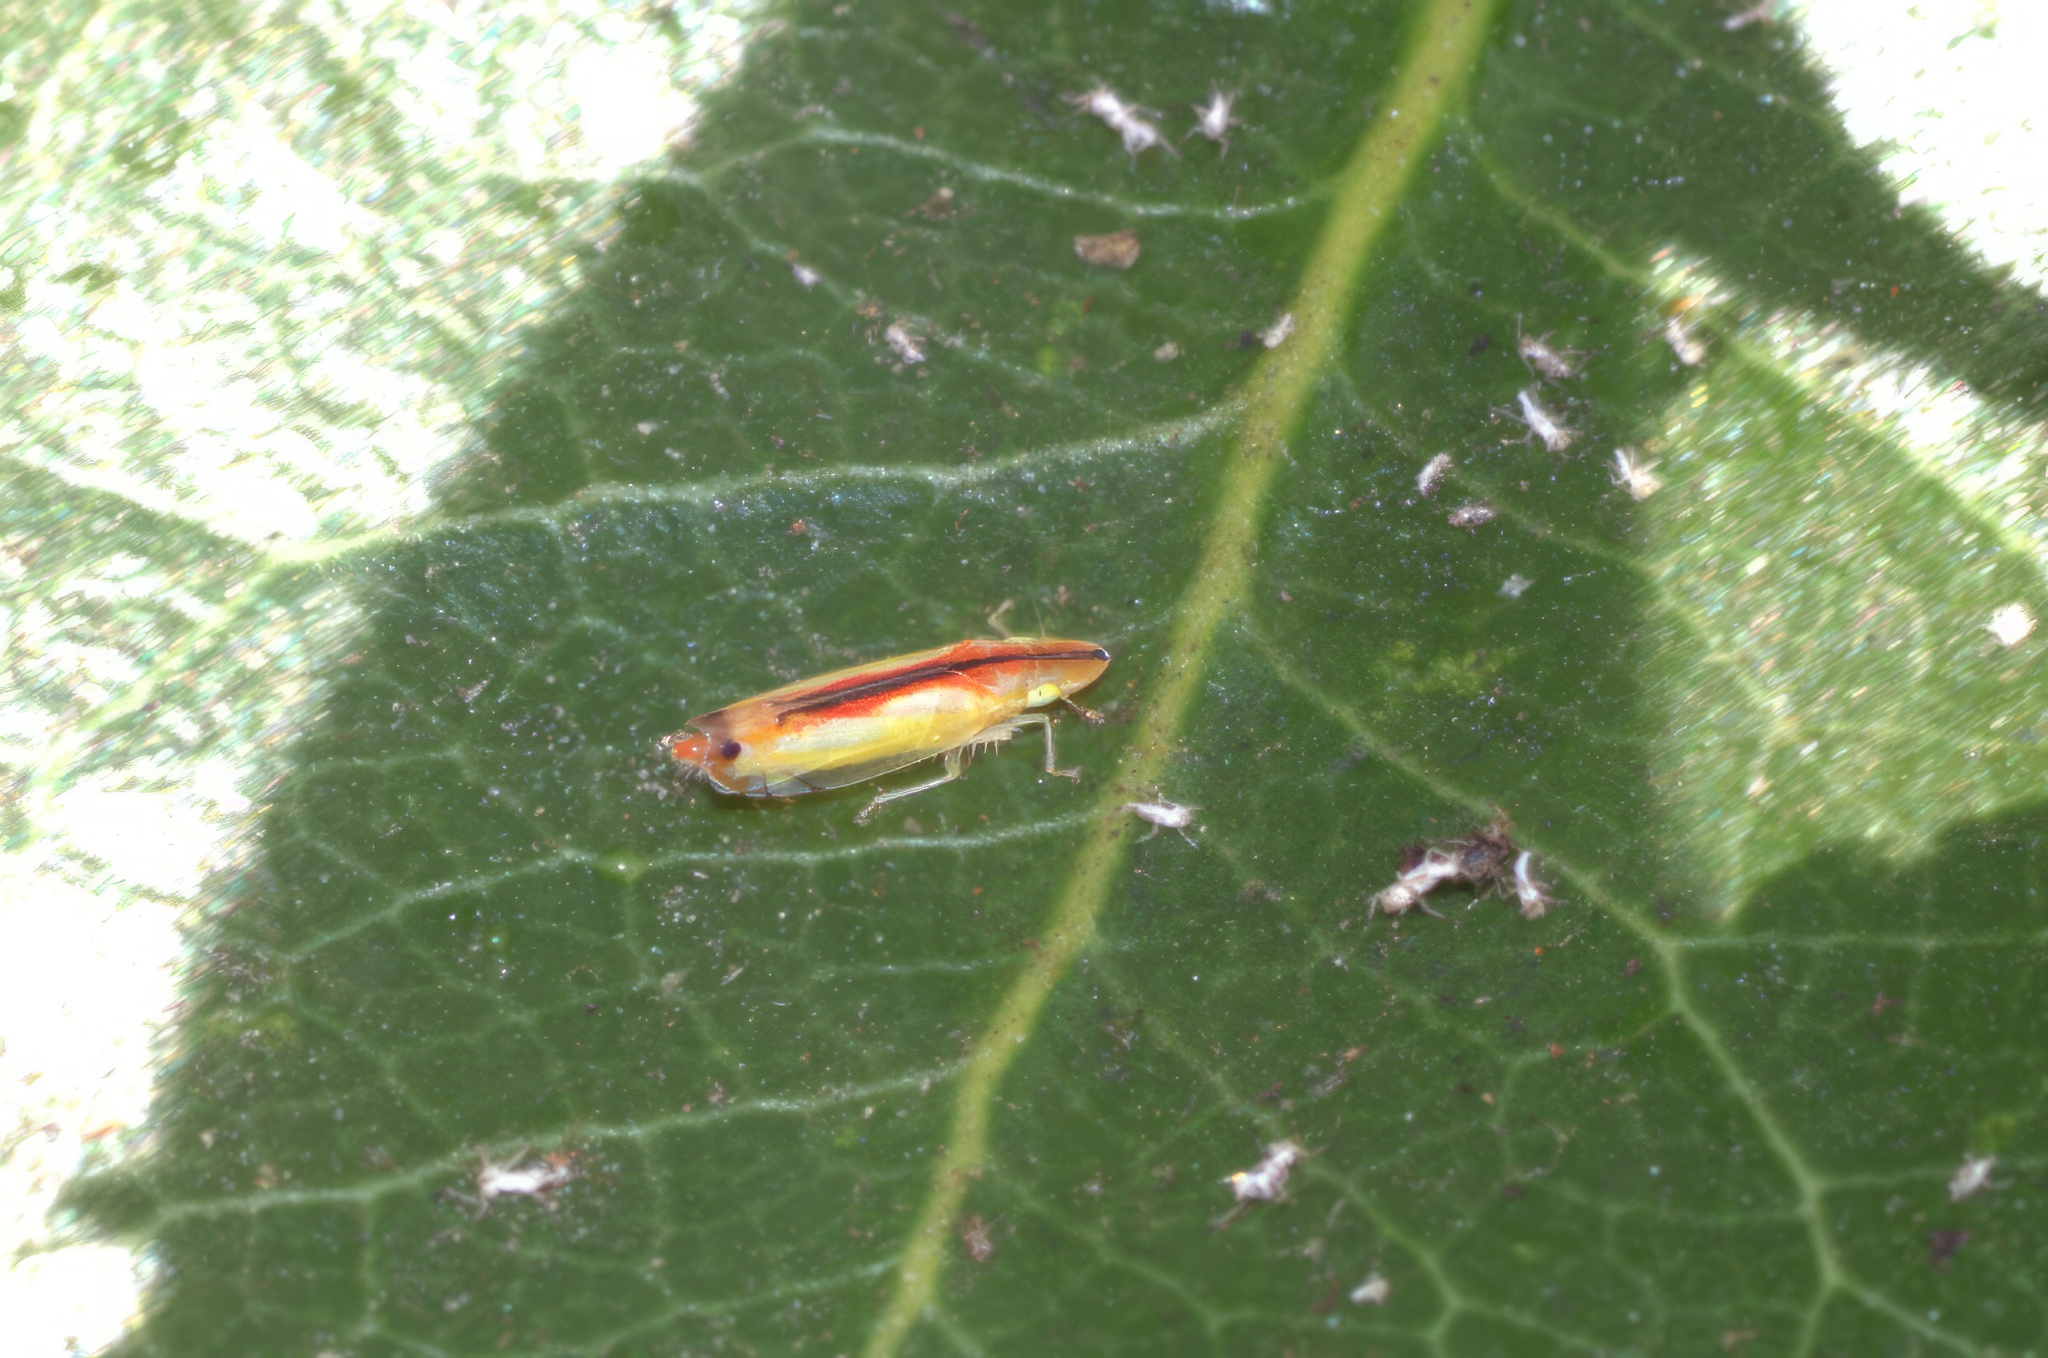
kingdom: Animalia
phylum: Arthropoda
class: Insecta
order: Hemiptera
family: Cicadellidae
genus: Sophonia
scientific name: Sophonia orientalis
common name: Two-spotted leafhopper
